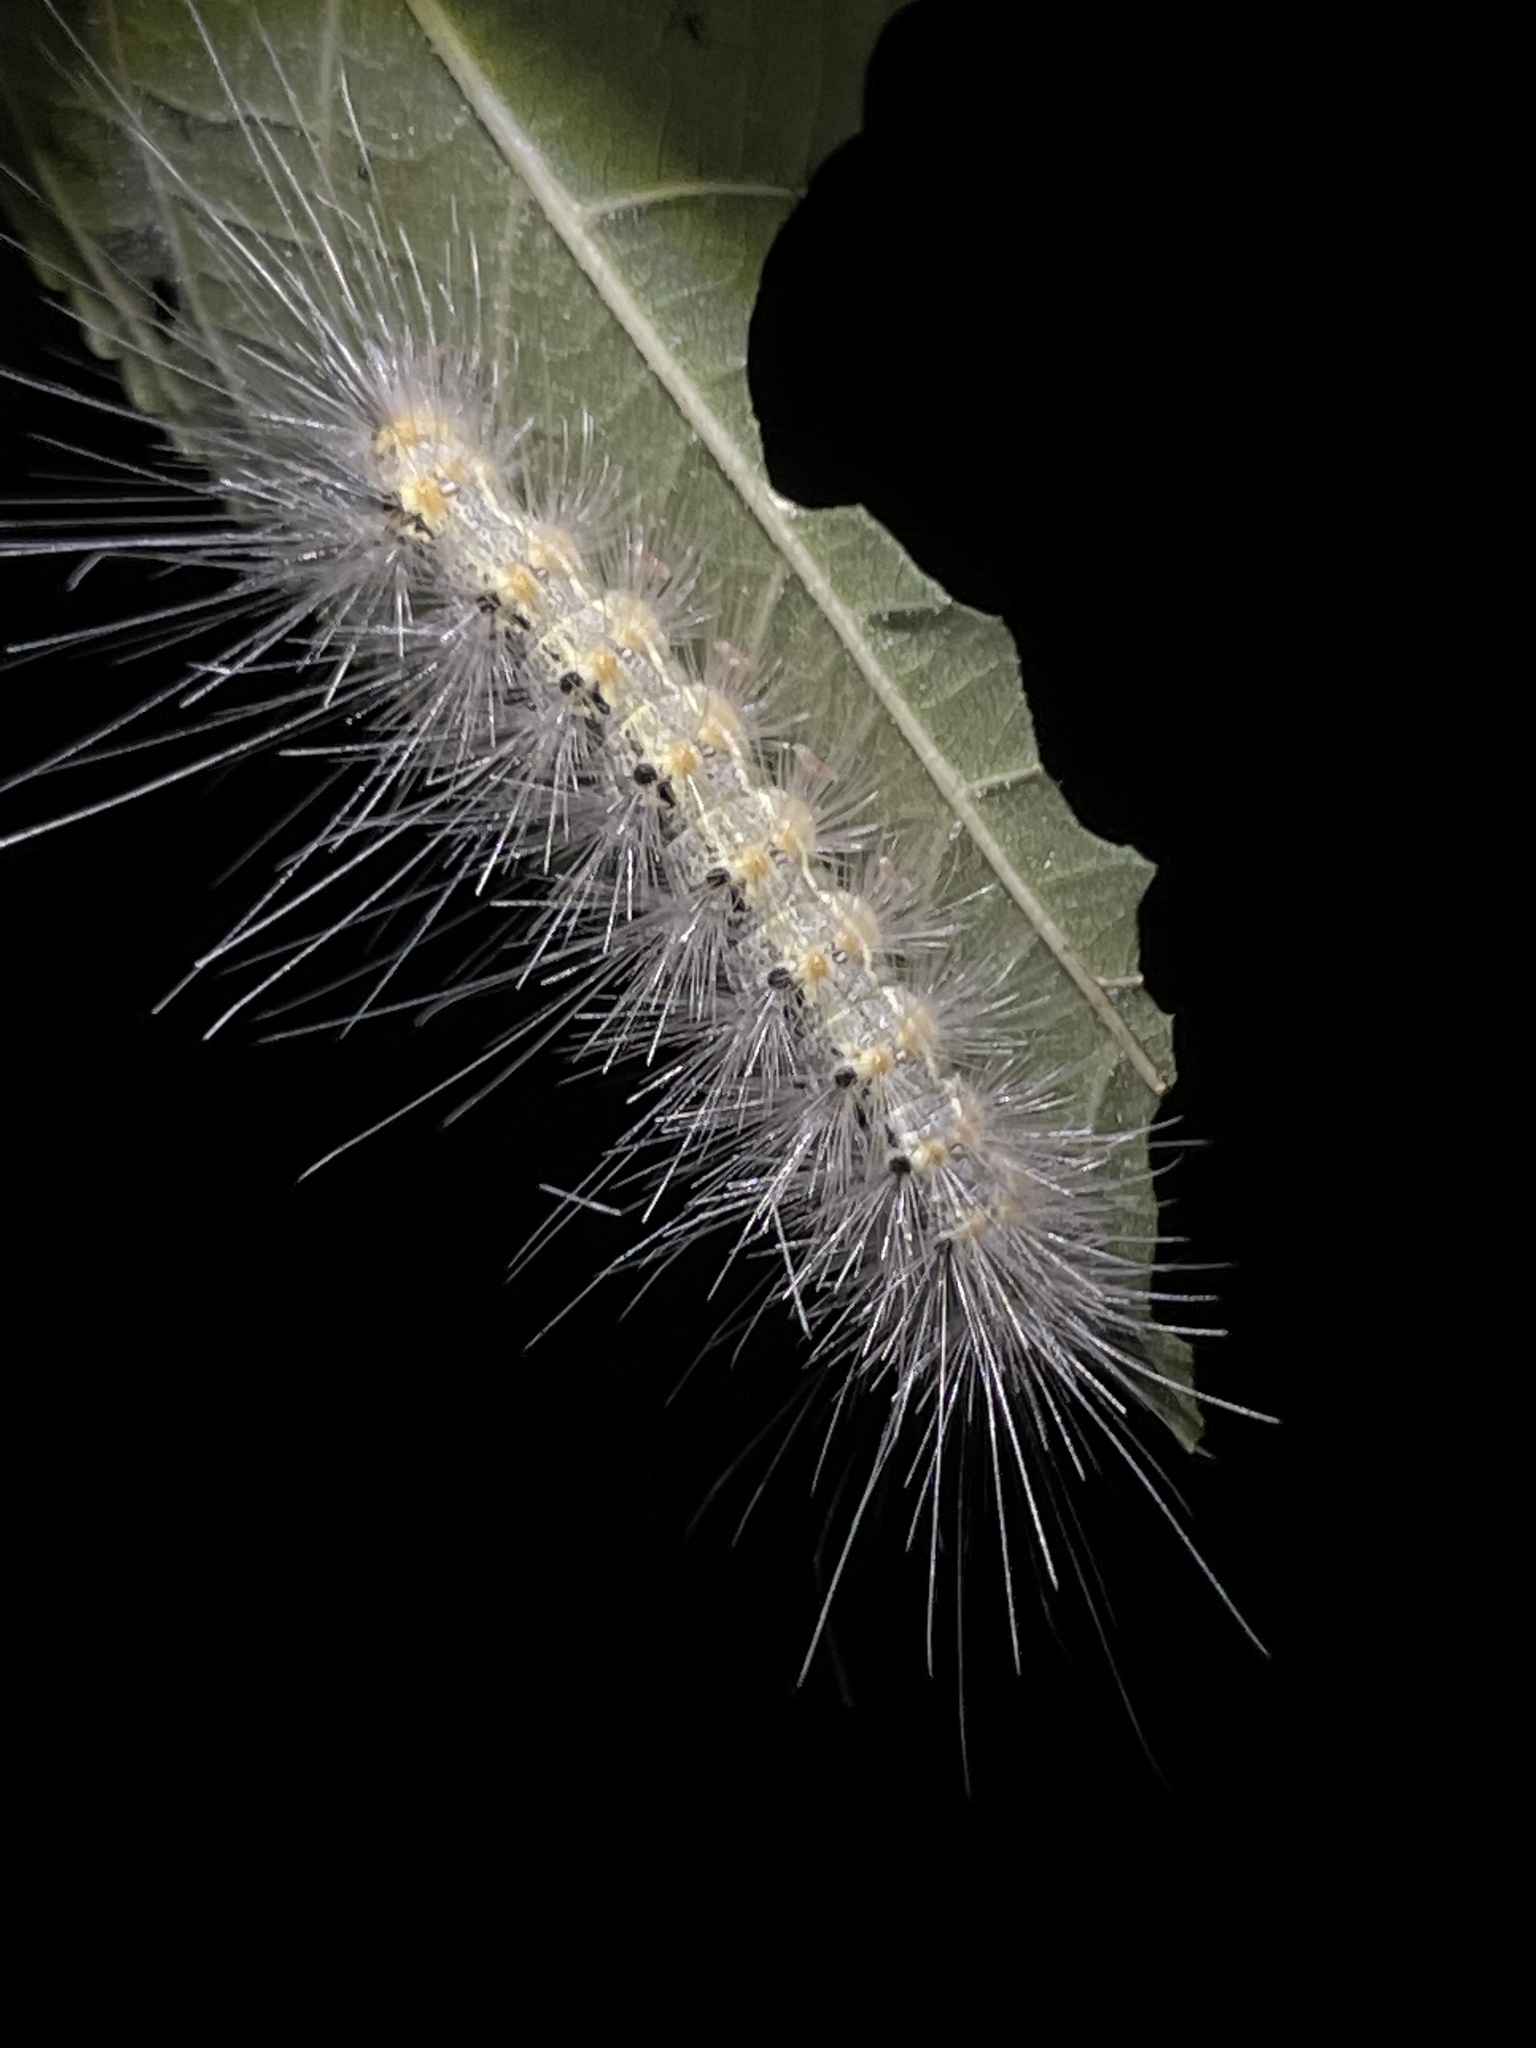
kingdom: Animalia
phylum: Arthropoda
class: Insecta
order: Lepidoptera
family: Erebidae
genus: Hyphantria
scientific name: Hyphantria cunea
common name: American white moth
